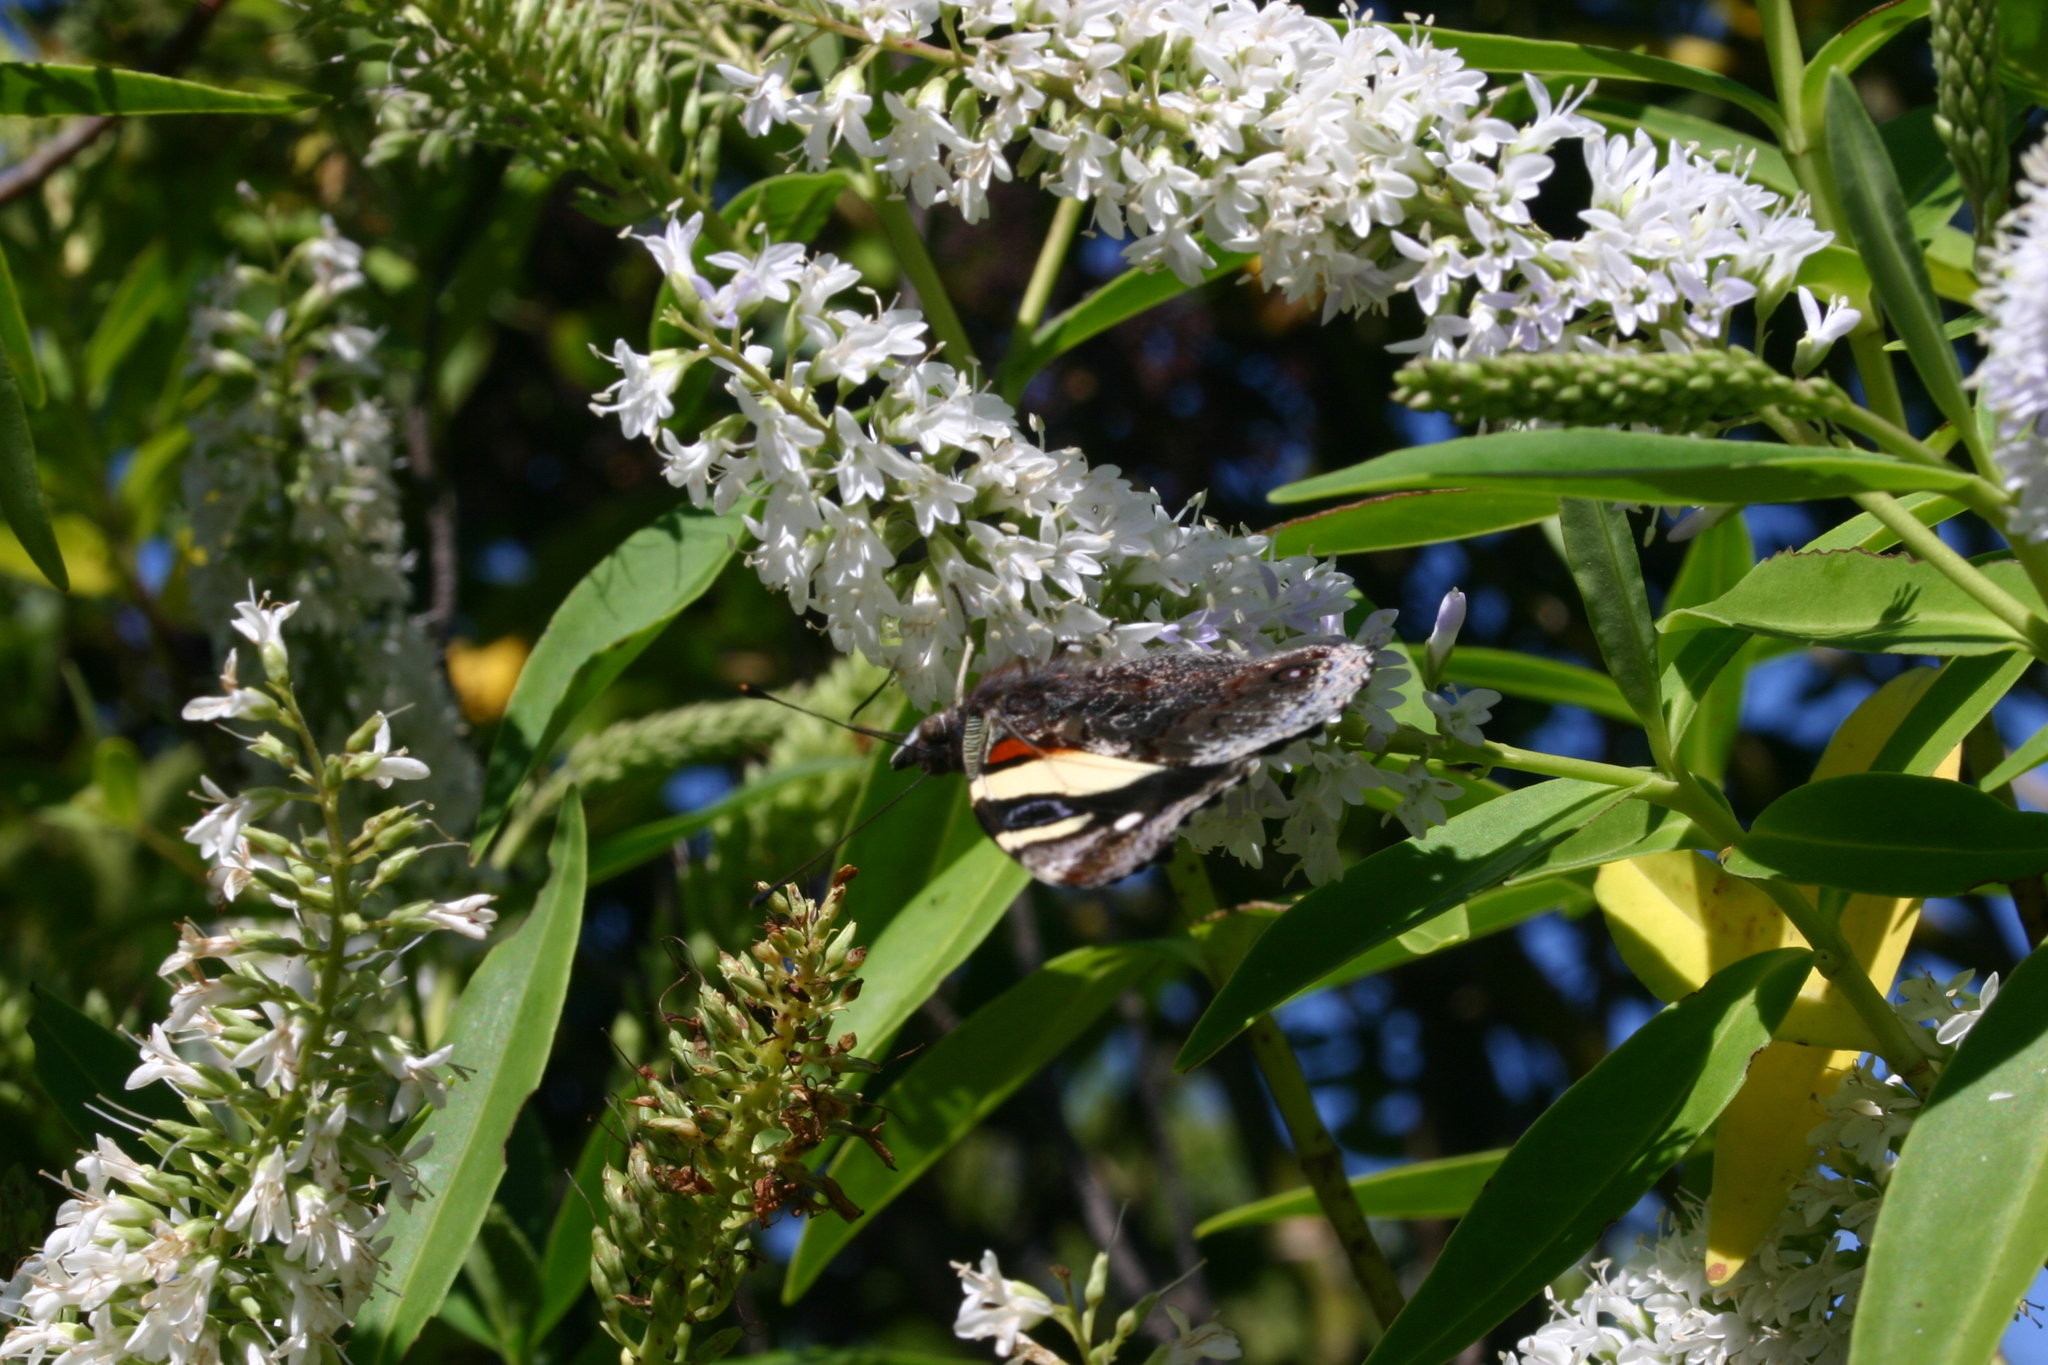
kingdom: Animalia
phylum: Arthropoda
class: Insecta
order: Lepidoptera
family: Nymphalidae
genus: Vanessa
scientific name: Vanessa itea
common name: Yellow admiral
